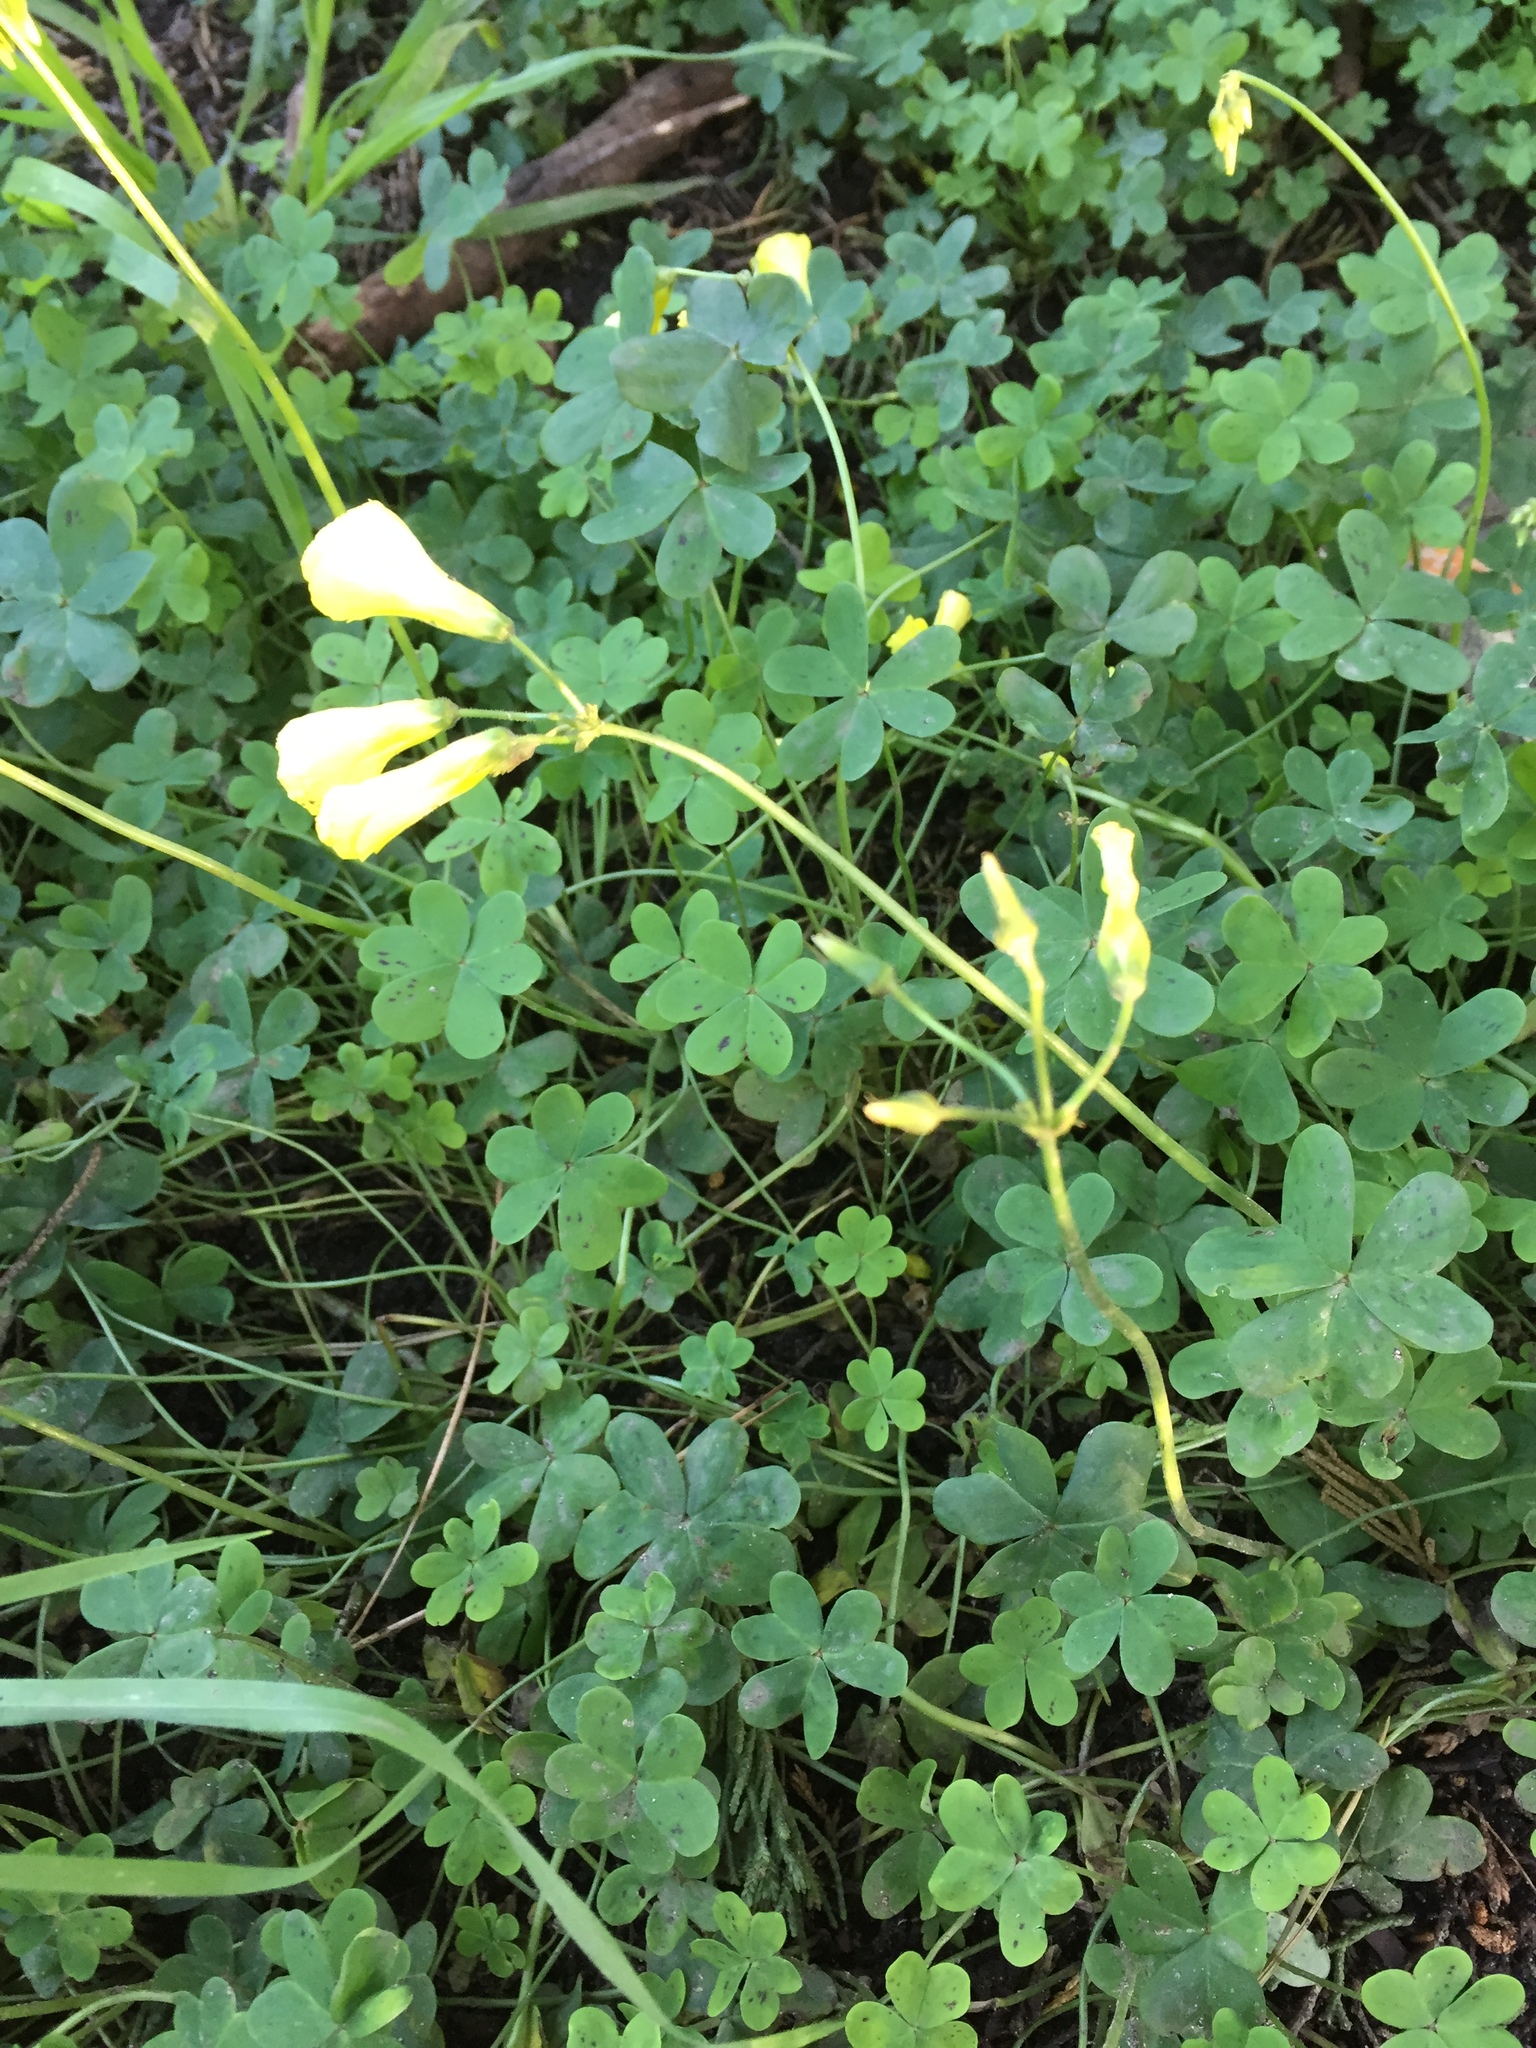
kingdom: Plantae
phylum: Tracheophyta
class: Magnoliopsida
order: Oxalidales
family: Oxalidaceae
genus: Oxalis
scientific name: Oxalis pes-caprae
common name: Bermuda-buttercup
